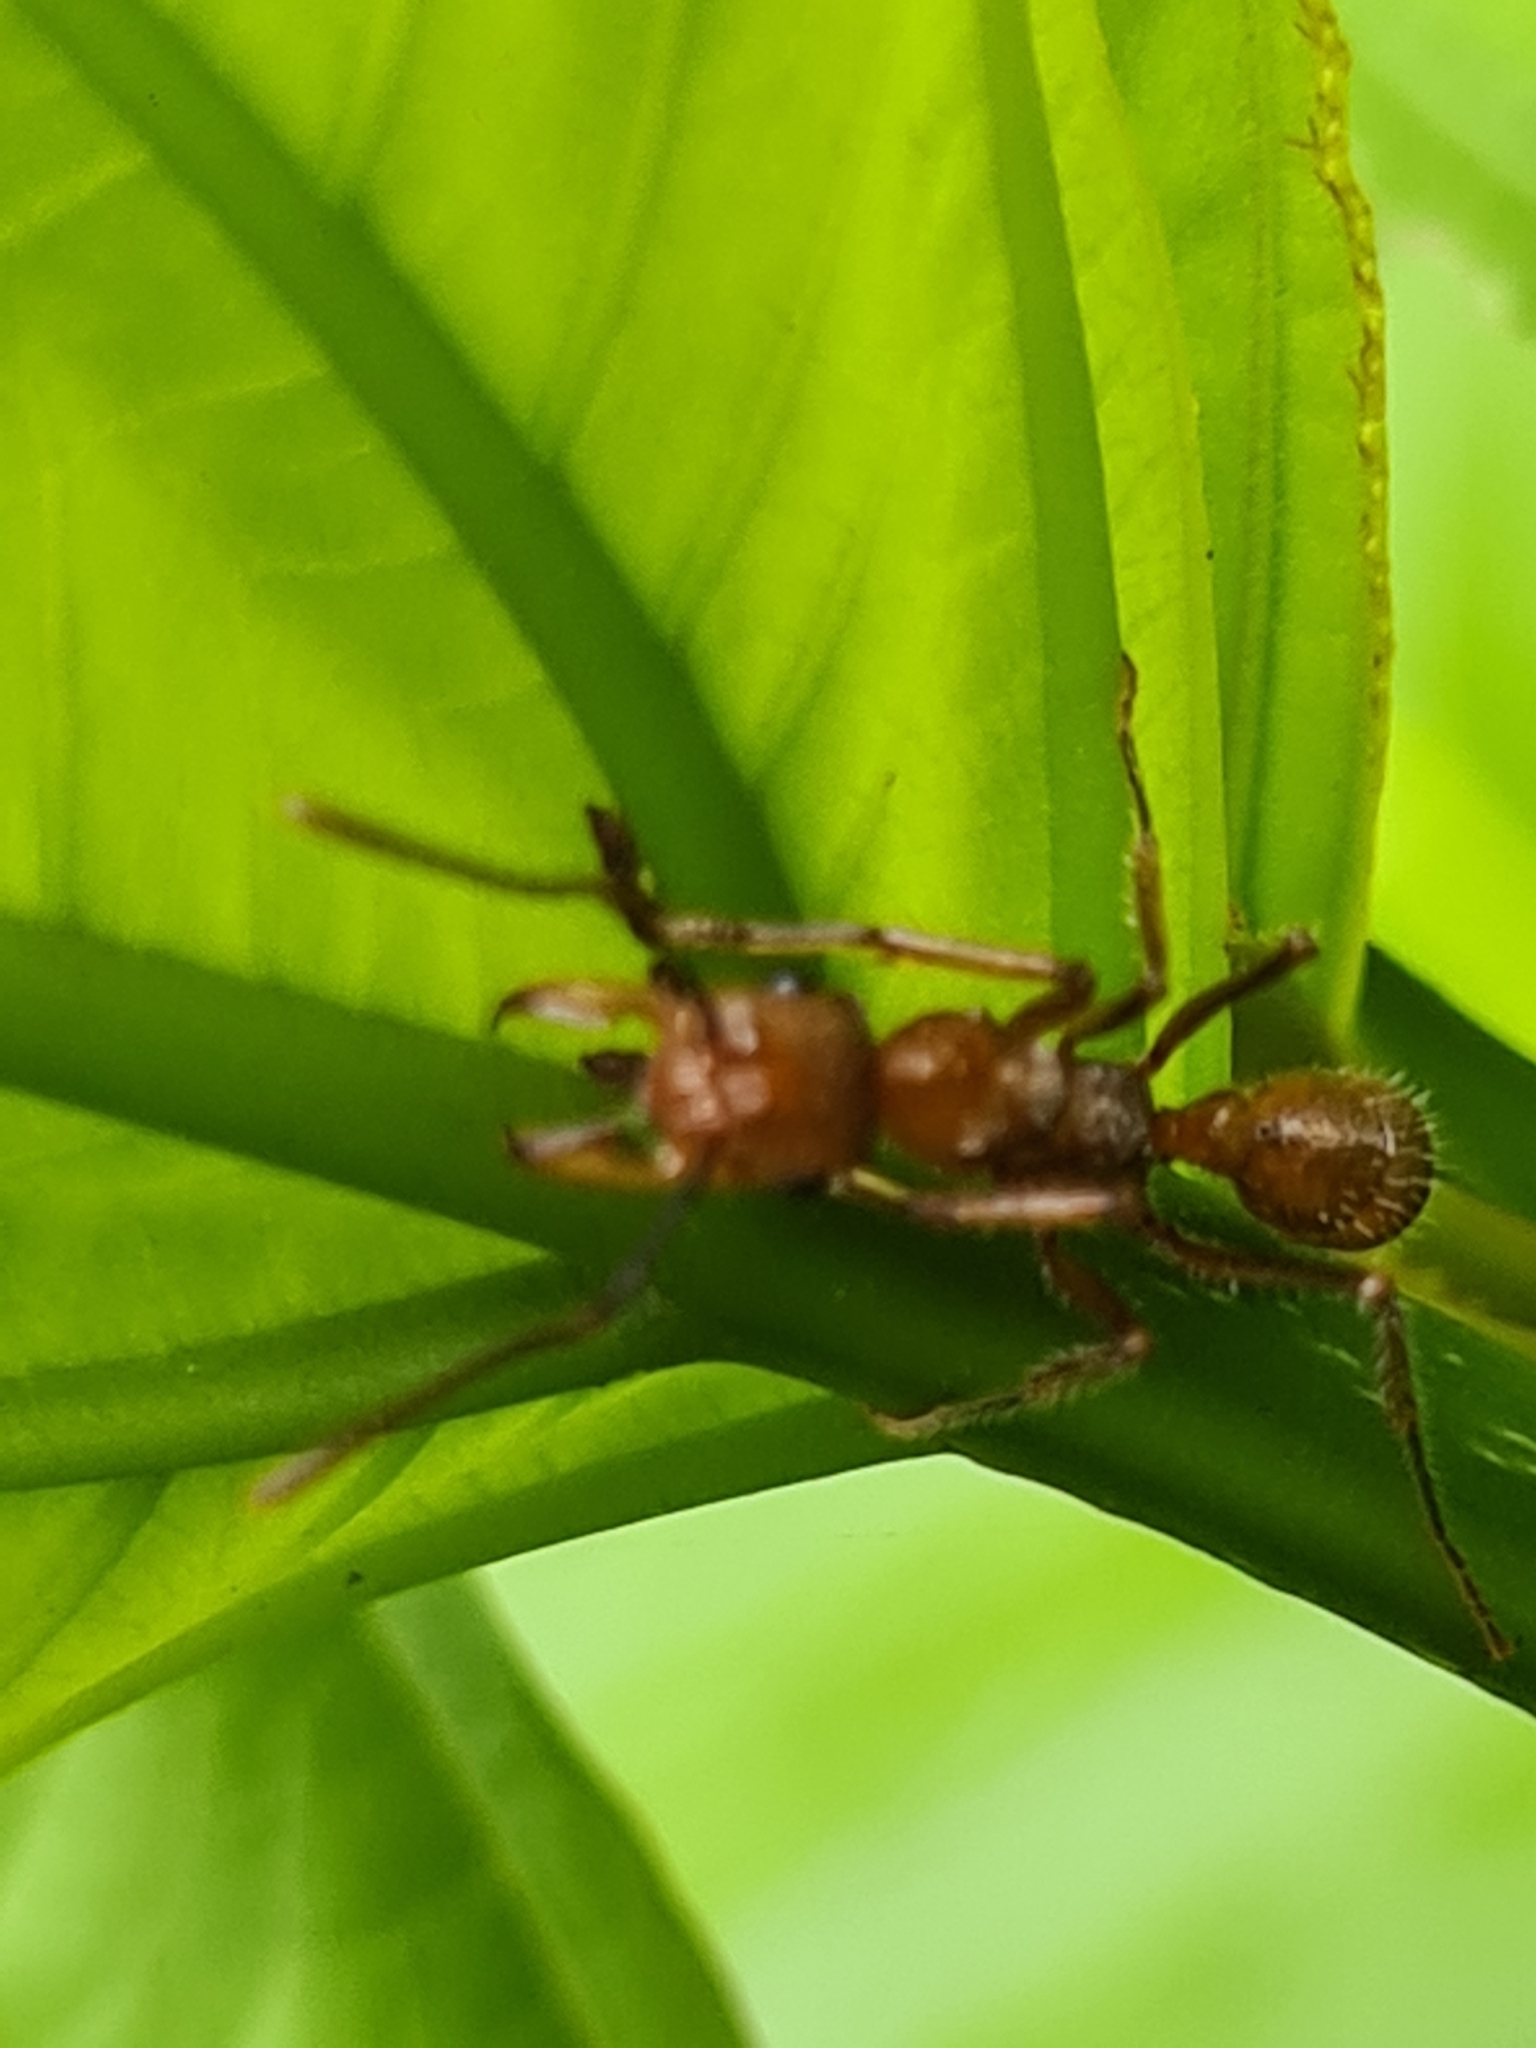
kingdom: Animalia
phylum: Arthropoda
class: Insecta
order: Hymenoptera
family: Formicidae
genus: Ectatomma
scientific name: Ectatomma tuberculatum
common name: Ant
